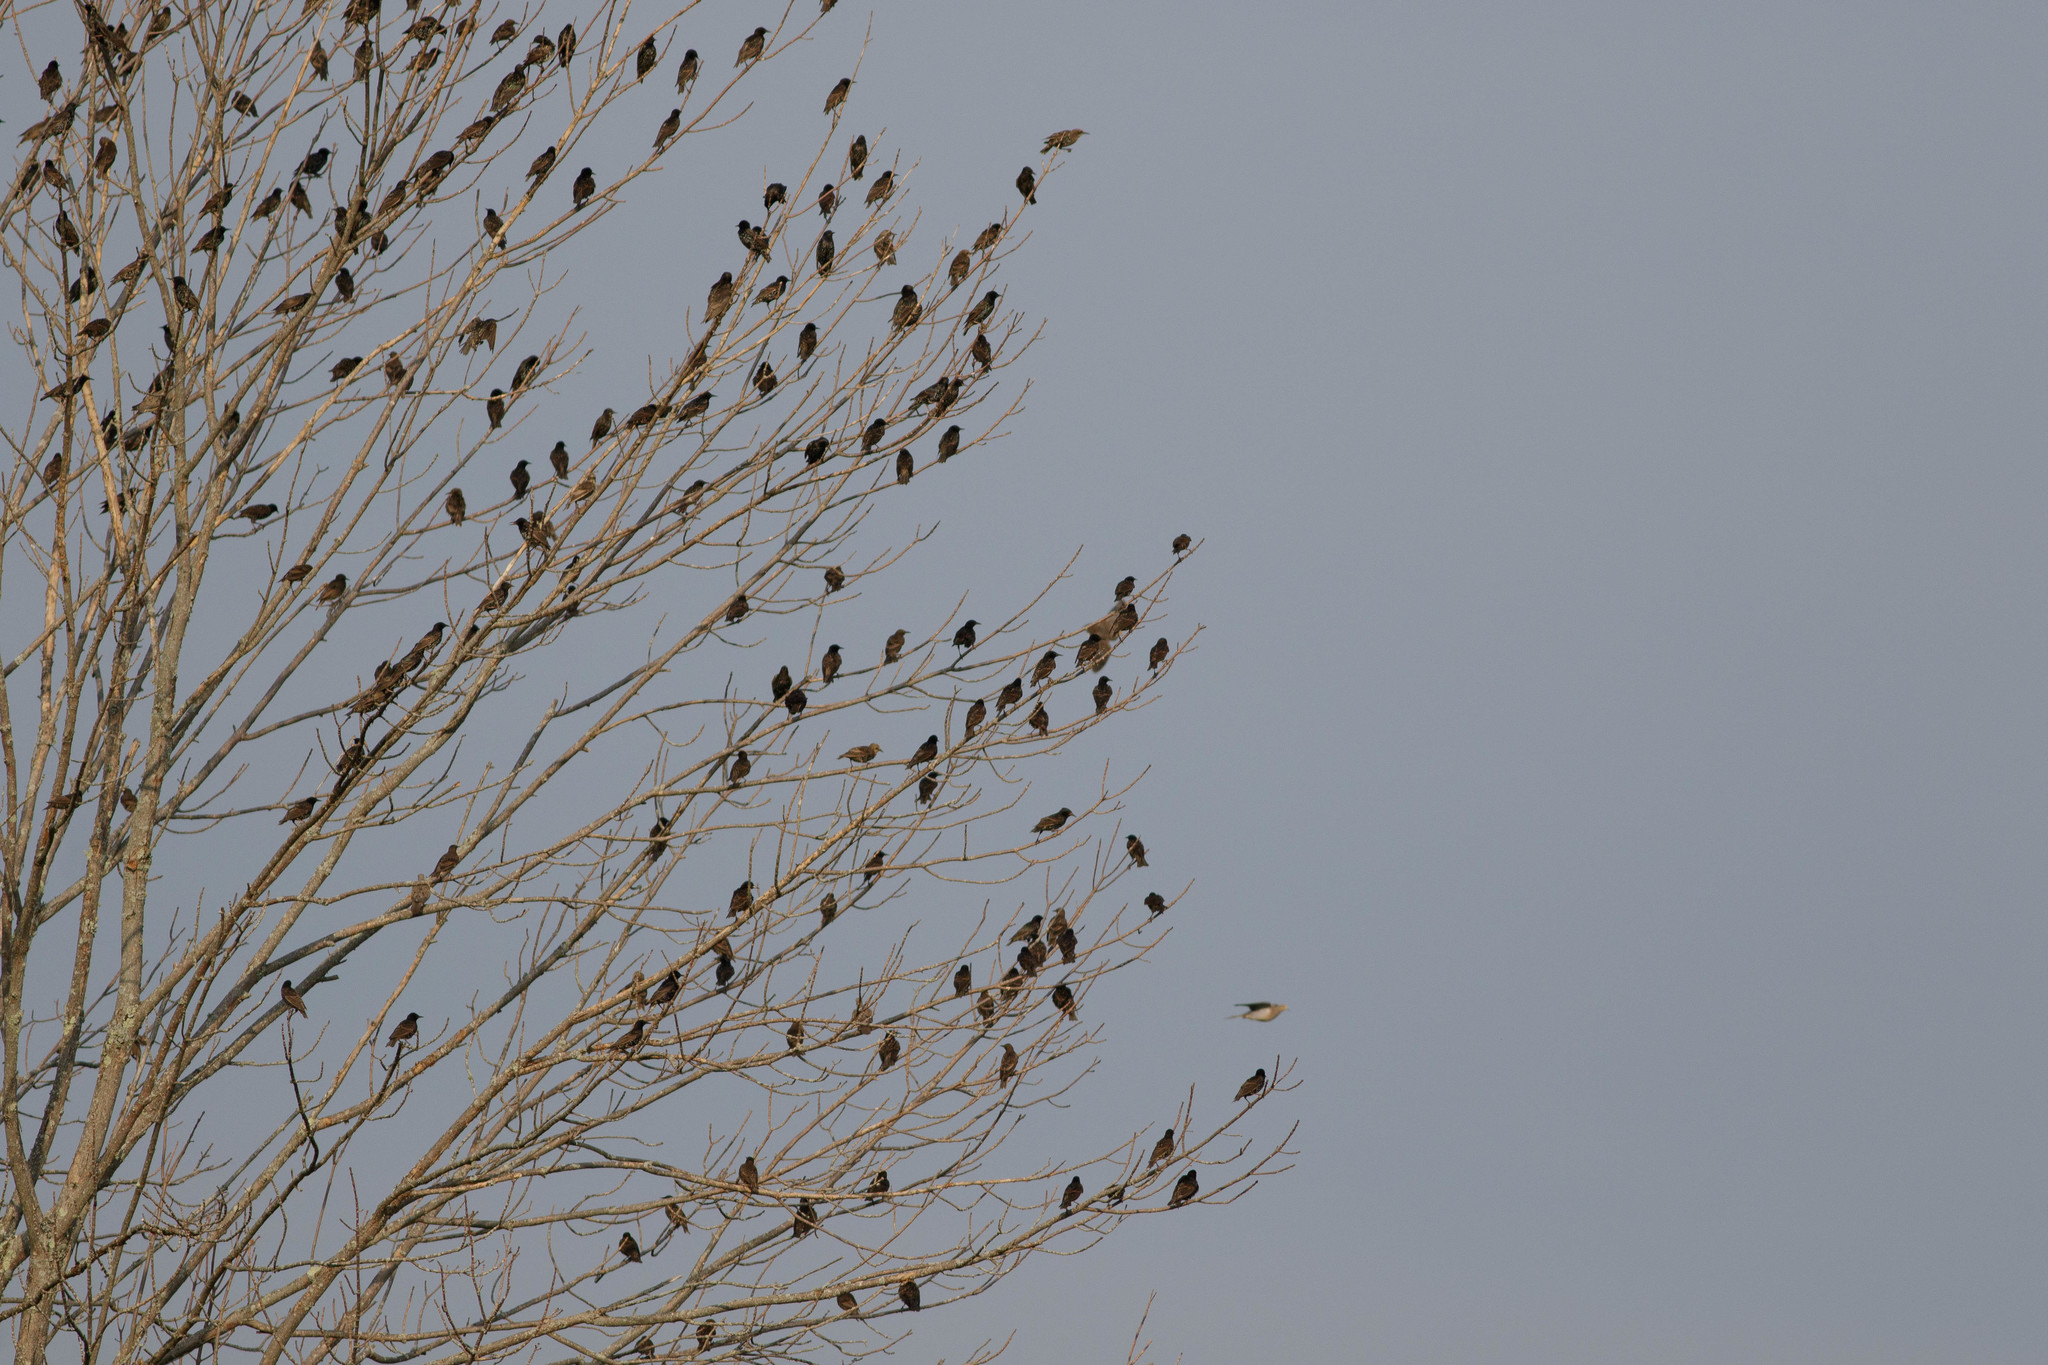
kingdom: Animalia
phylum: Chordata
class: Aves
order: Passeriformes
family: Sturnidae
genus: Sturnus
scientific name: Sturnus vulgaris
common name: Common starling
